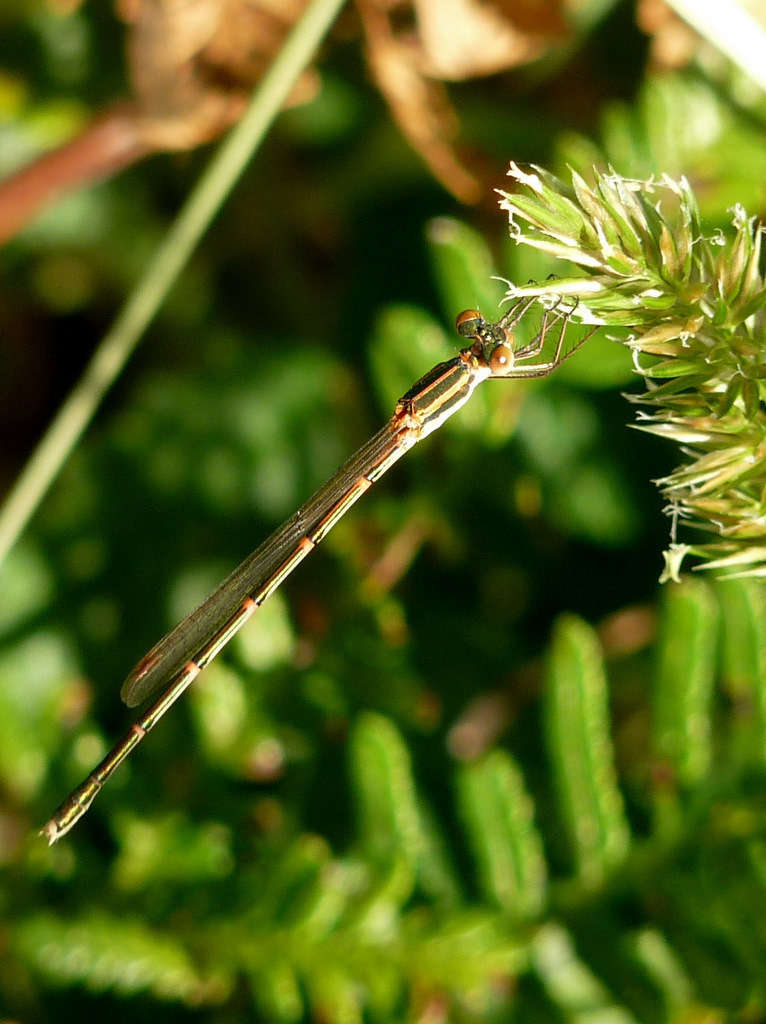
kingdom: Animalia
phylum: Arthropoda
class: Insecta
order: Odonata
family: Lestidae
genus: Austrolestes
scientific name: Austrolestes analis
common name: Slender ringtail
